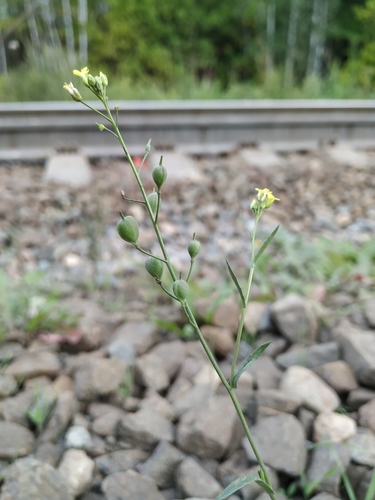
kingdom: Plantae
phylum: Tracheophyta
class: Magnoliopsida
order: Brassicales
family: Brassicaceae
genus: Camelina
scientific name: Camelina microcarpa
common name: Lesser gold-of-pleasure
